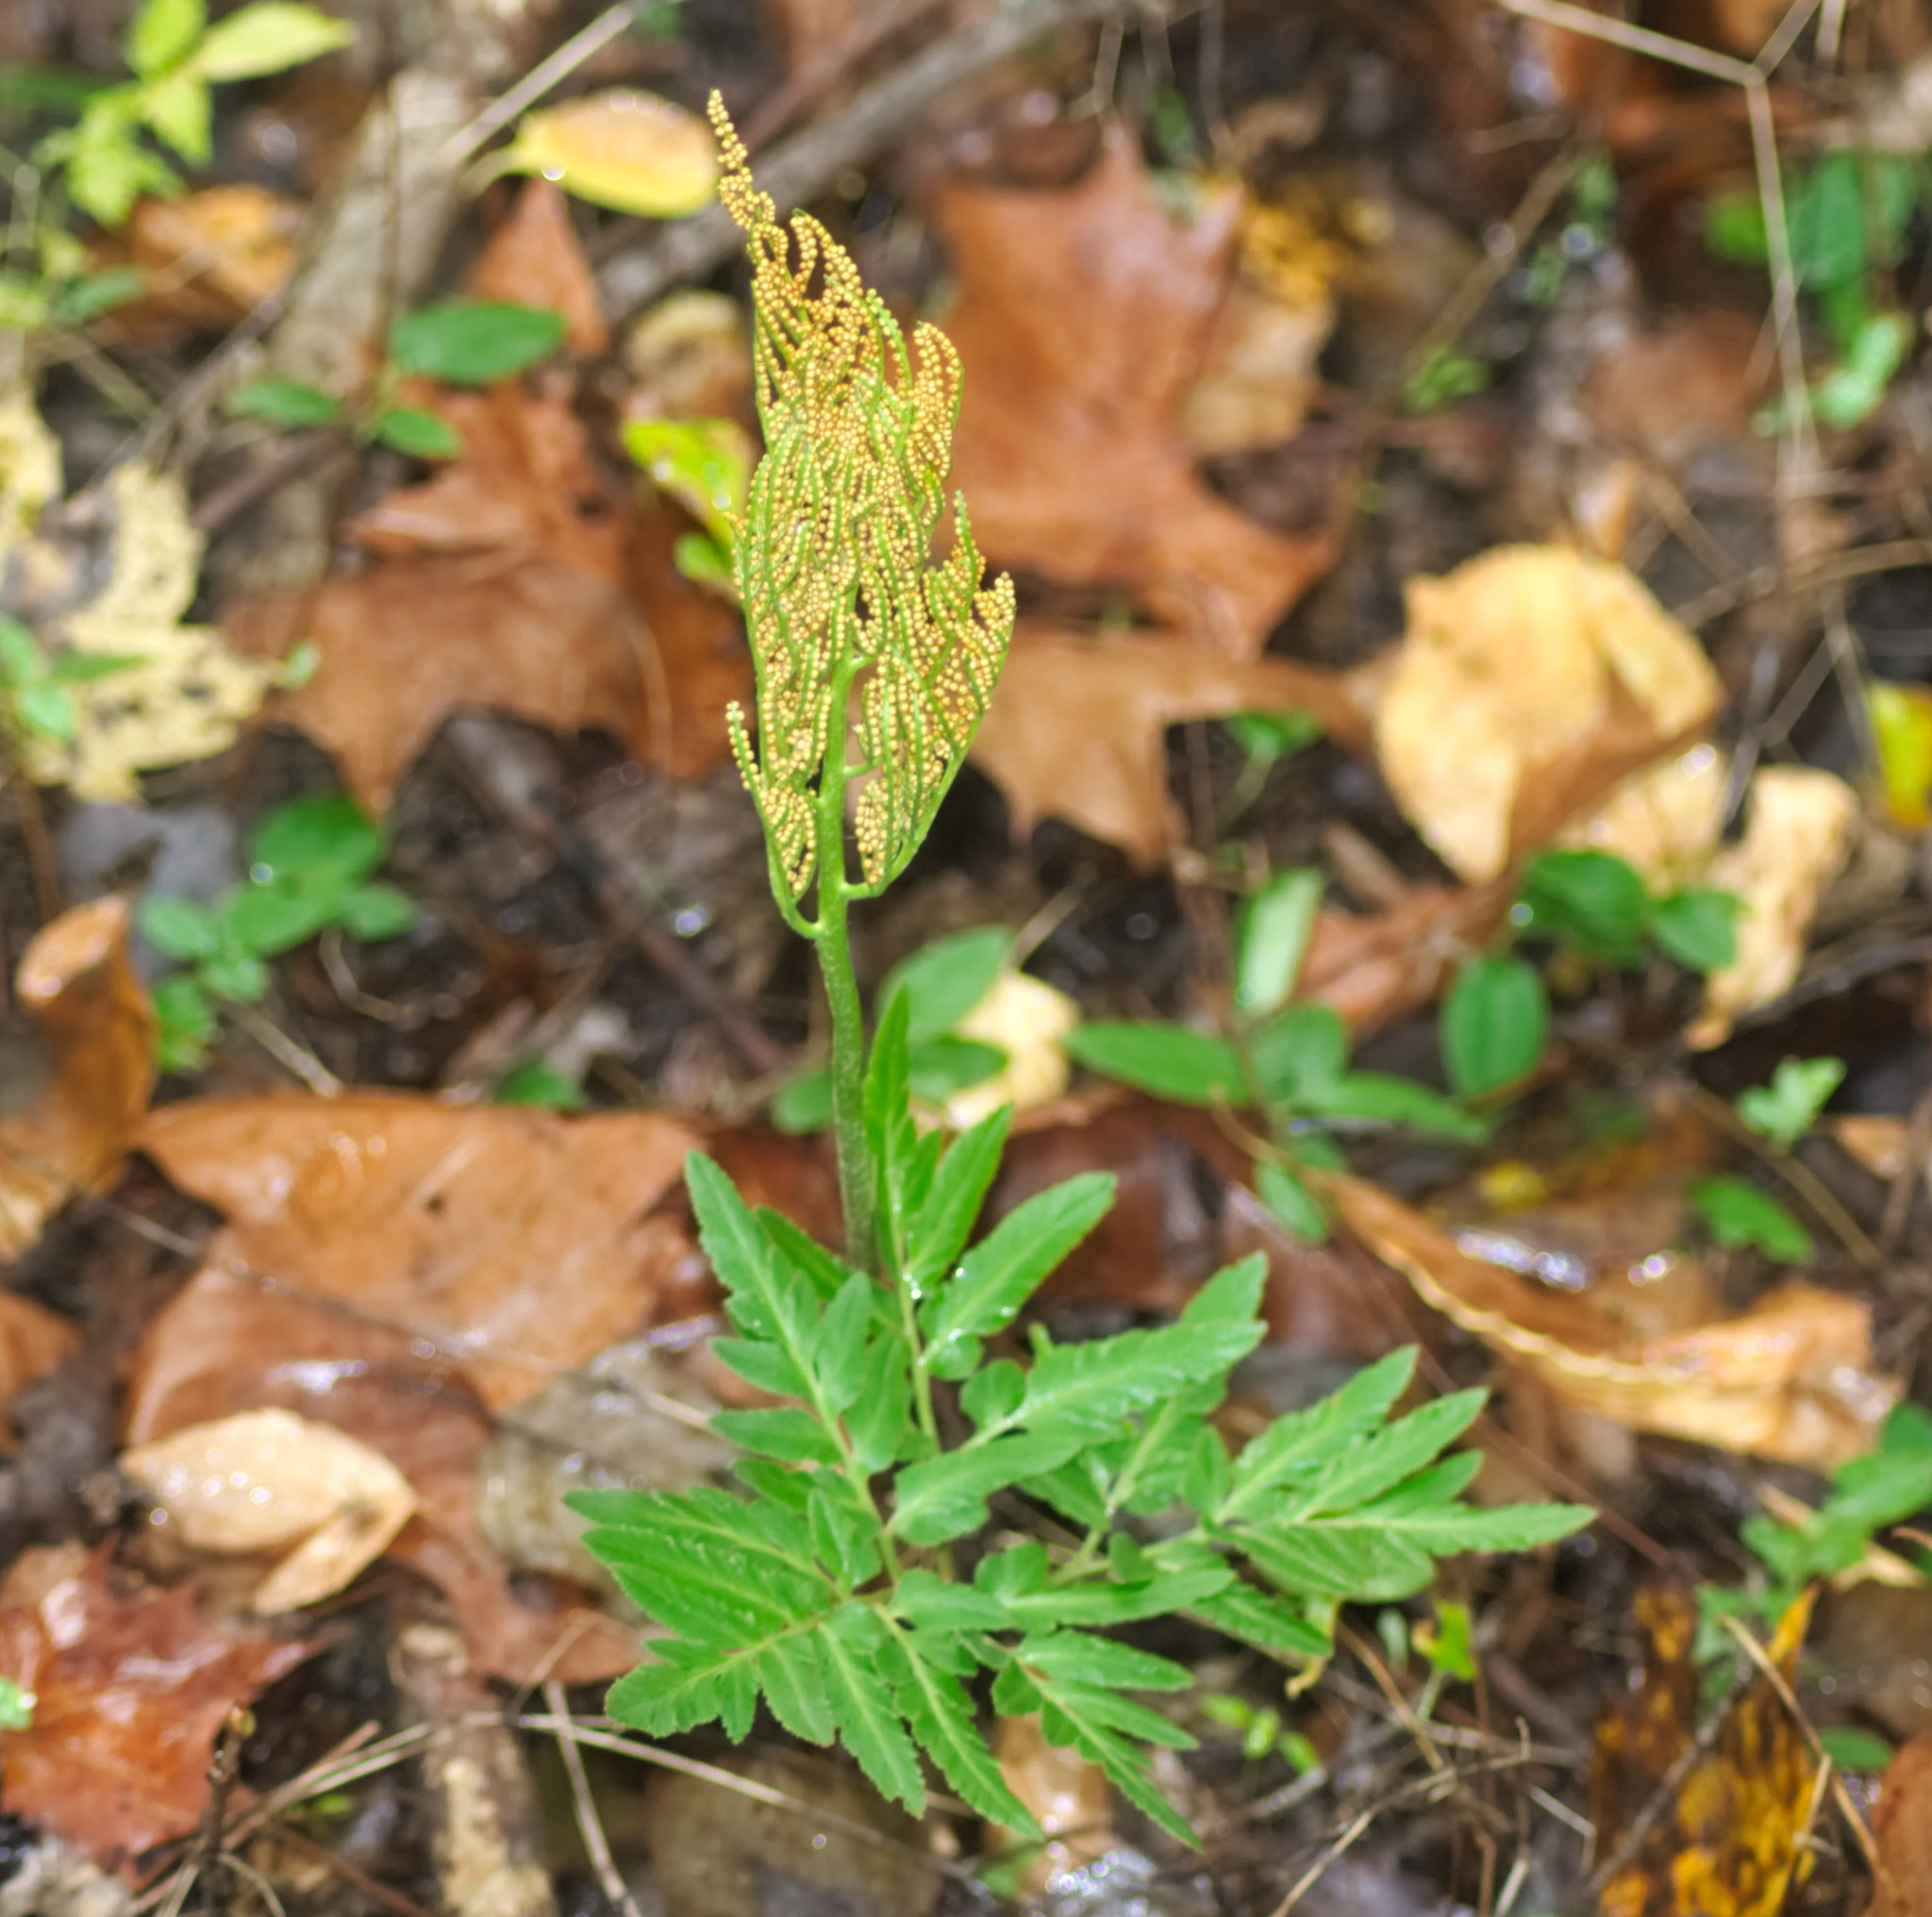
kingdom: Plantae
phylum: Tracheophyta
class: Polypodiopsida
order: Ophioglossales
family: Ophioglossaceae
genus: Sceptridium
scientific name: Sceptridium dissectum
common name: Cut-leaved grapefern
